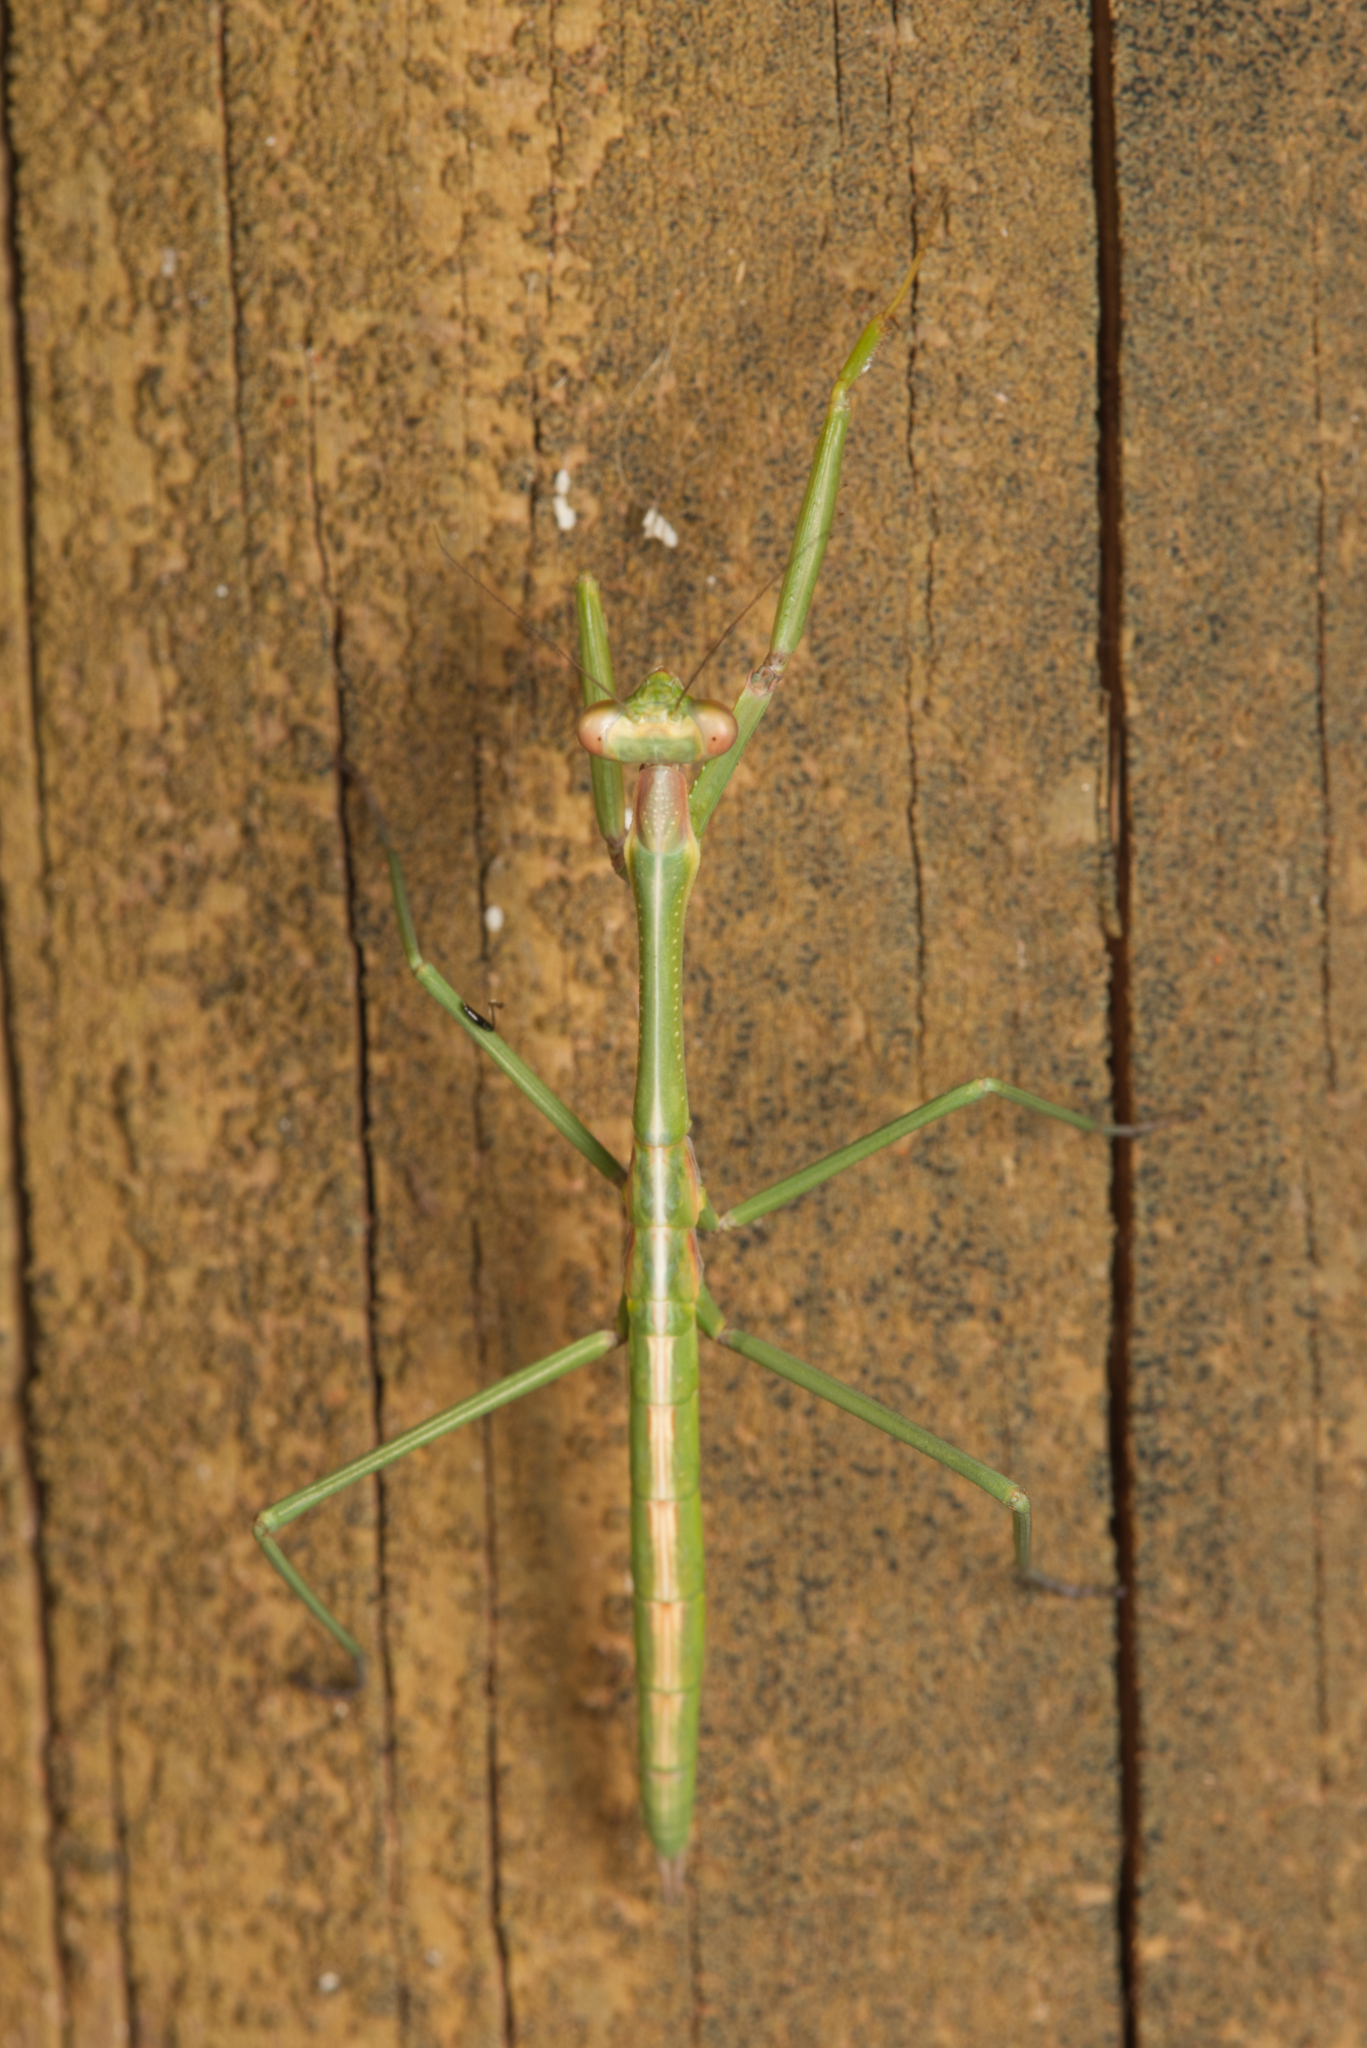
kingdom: Animalia
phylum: Arthropoda
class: Insecta
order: Mantodea
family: Mantidae
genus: Archimantis
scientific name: Archimantis latistyla
